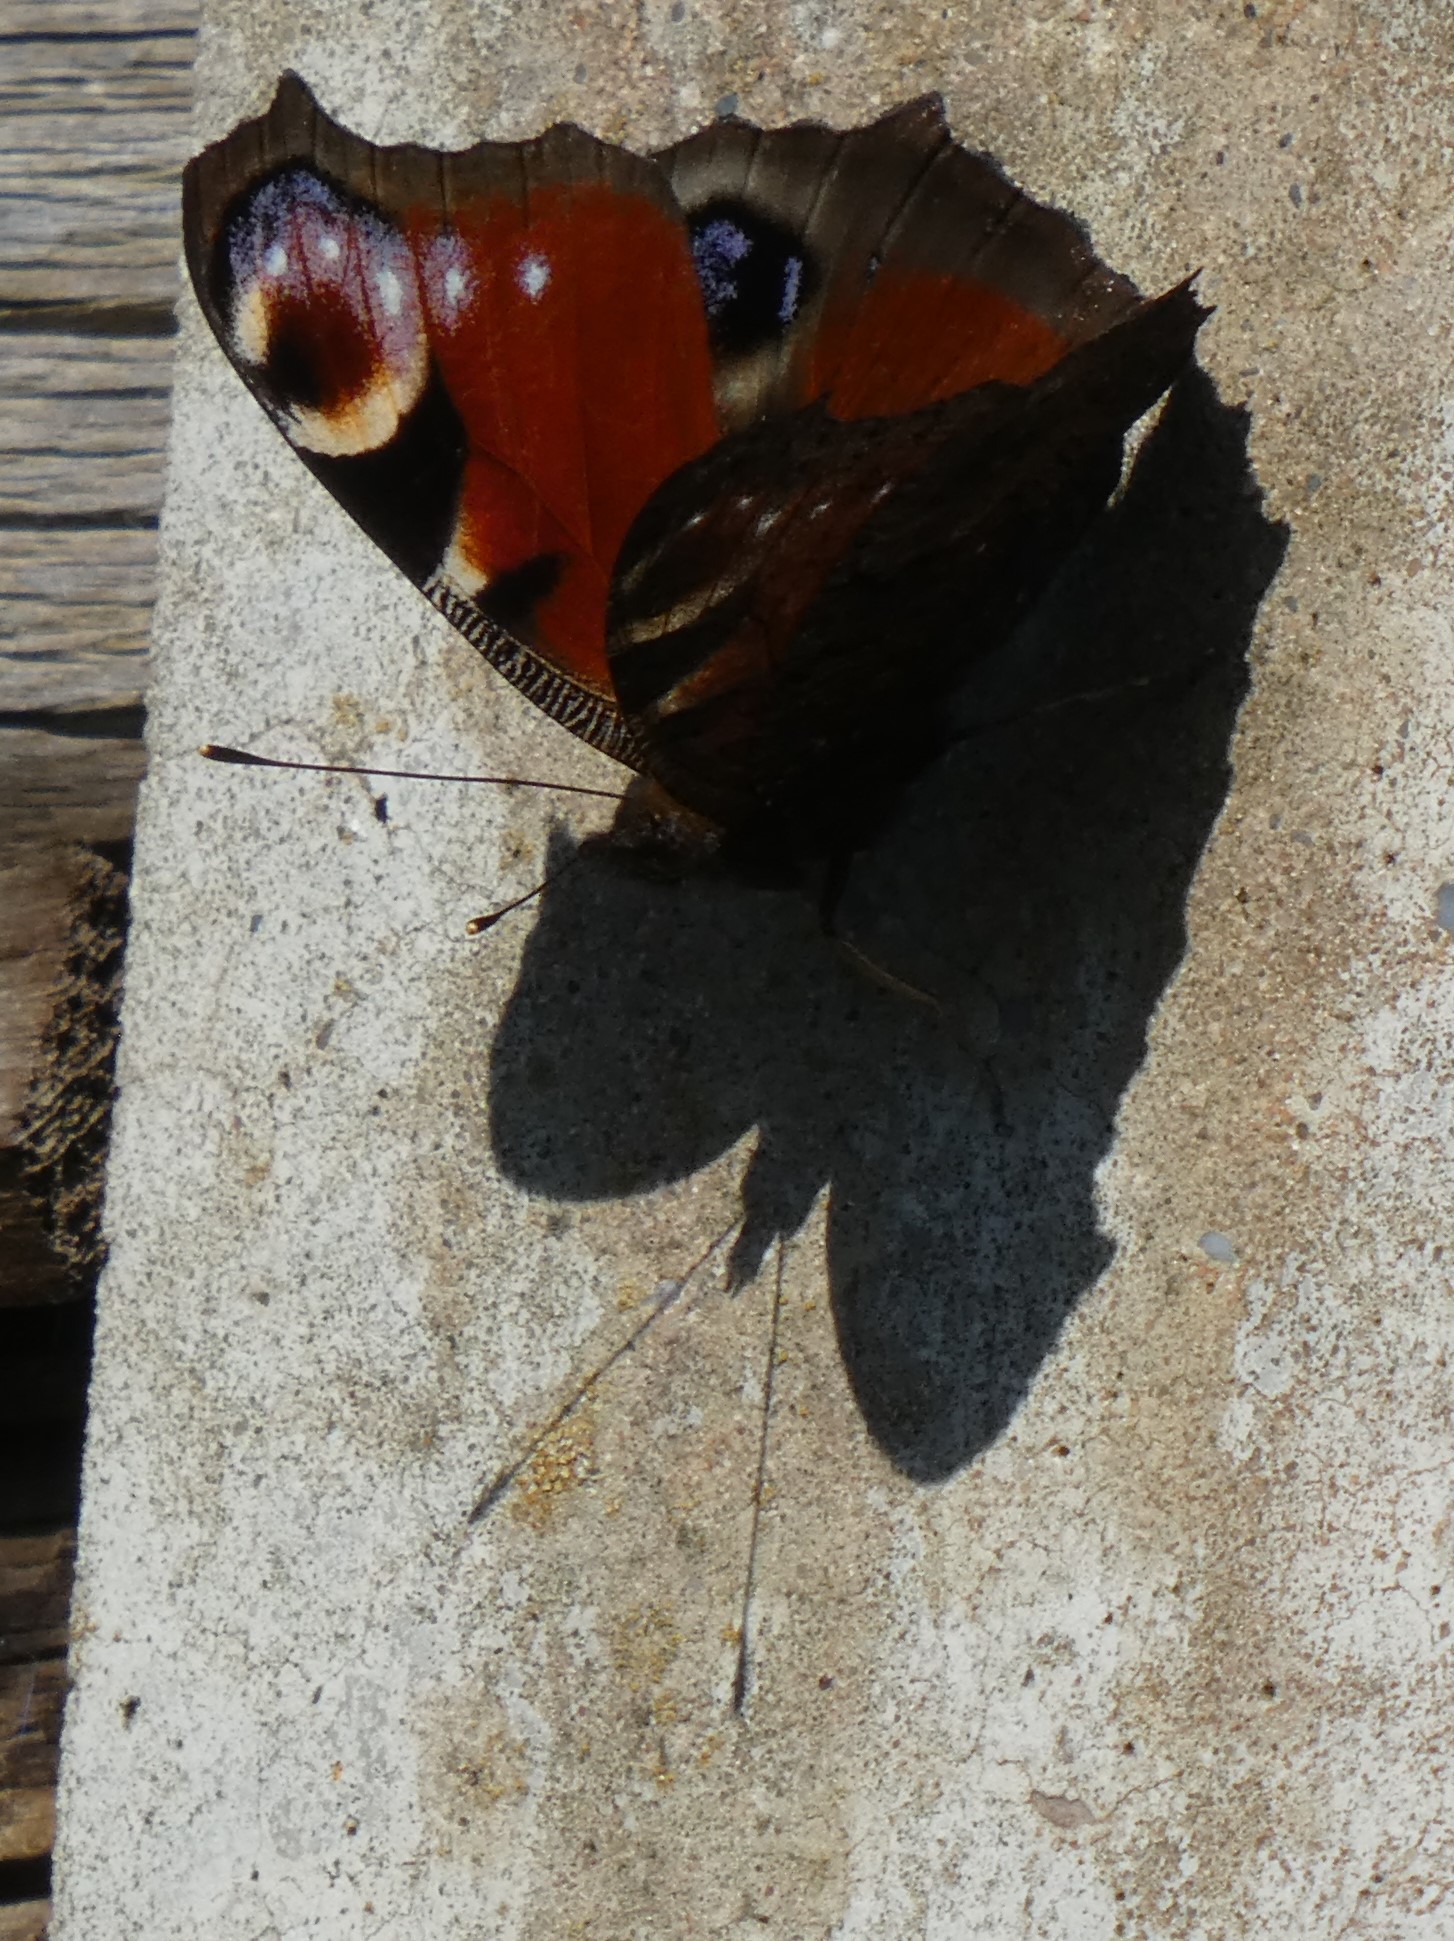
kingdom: Animalia
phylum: Arthropoda
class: Insecta
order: Lepidoptera
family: Nymphalidae
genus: Aglais
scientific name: Aglais io
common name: Peacock
